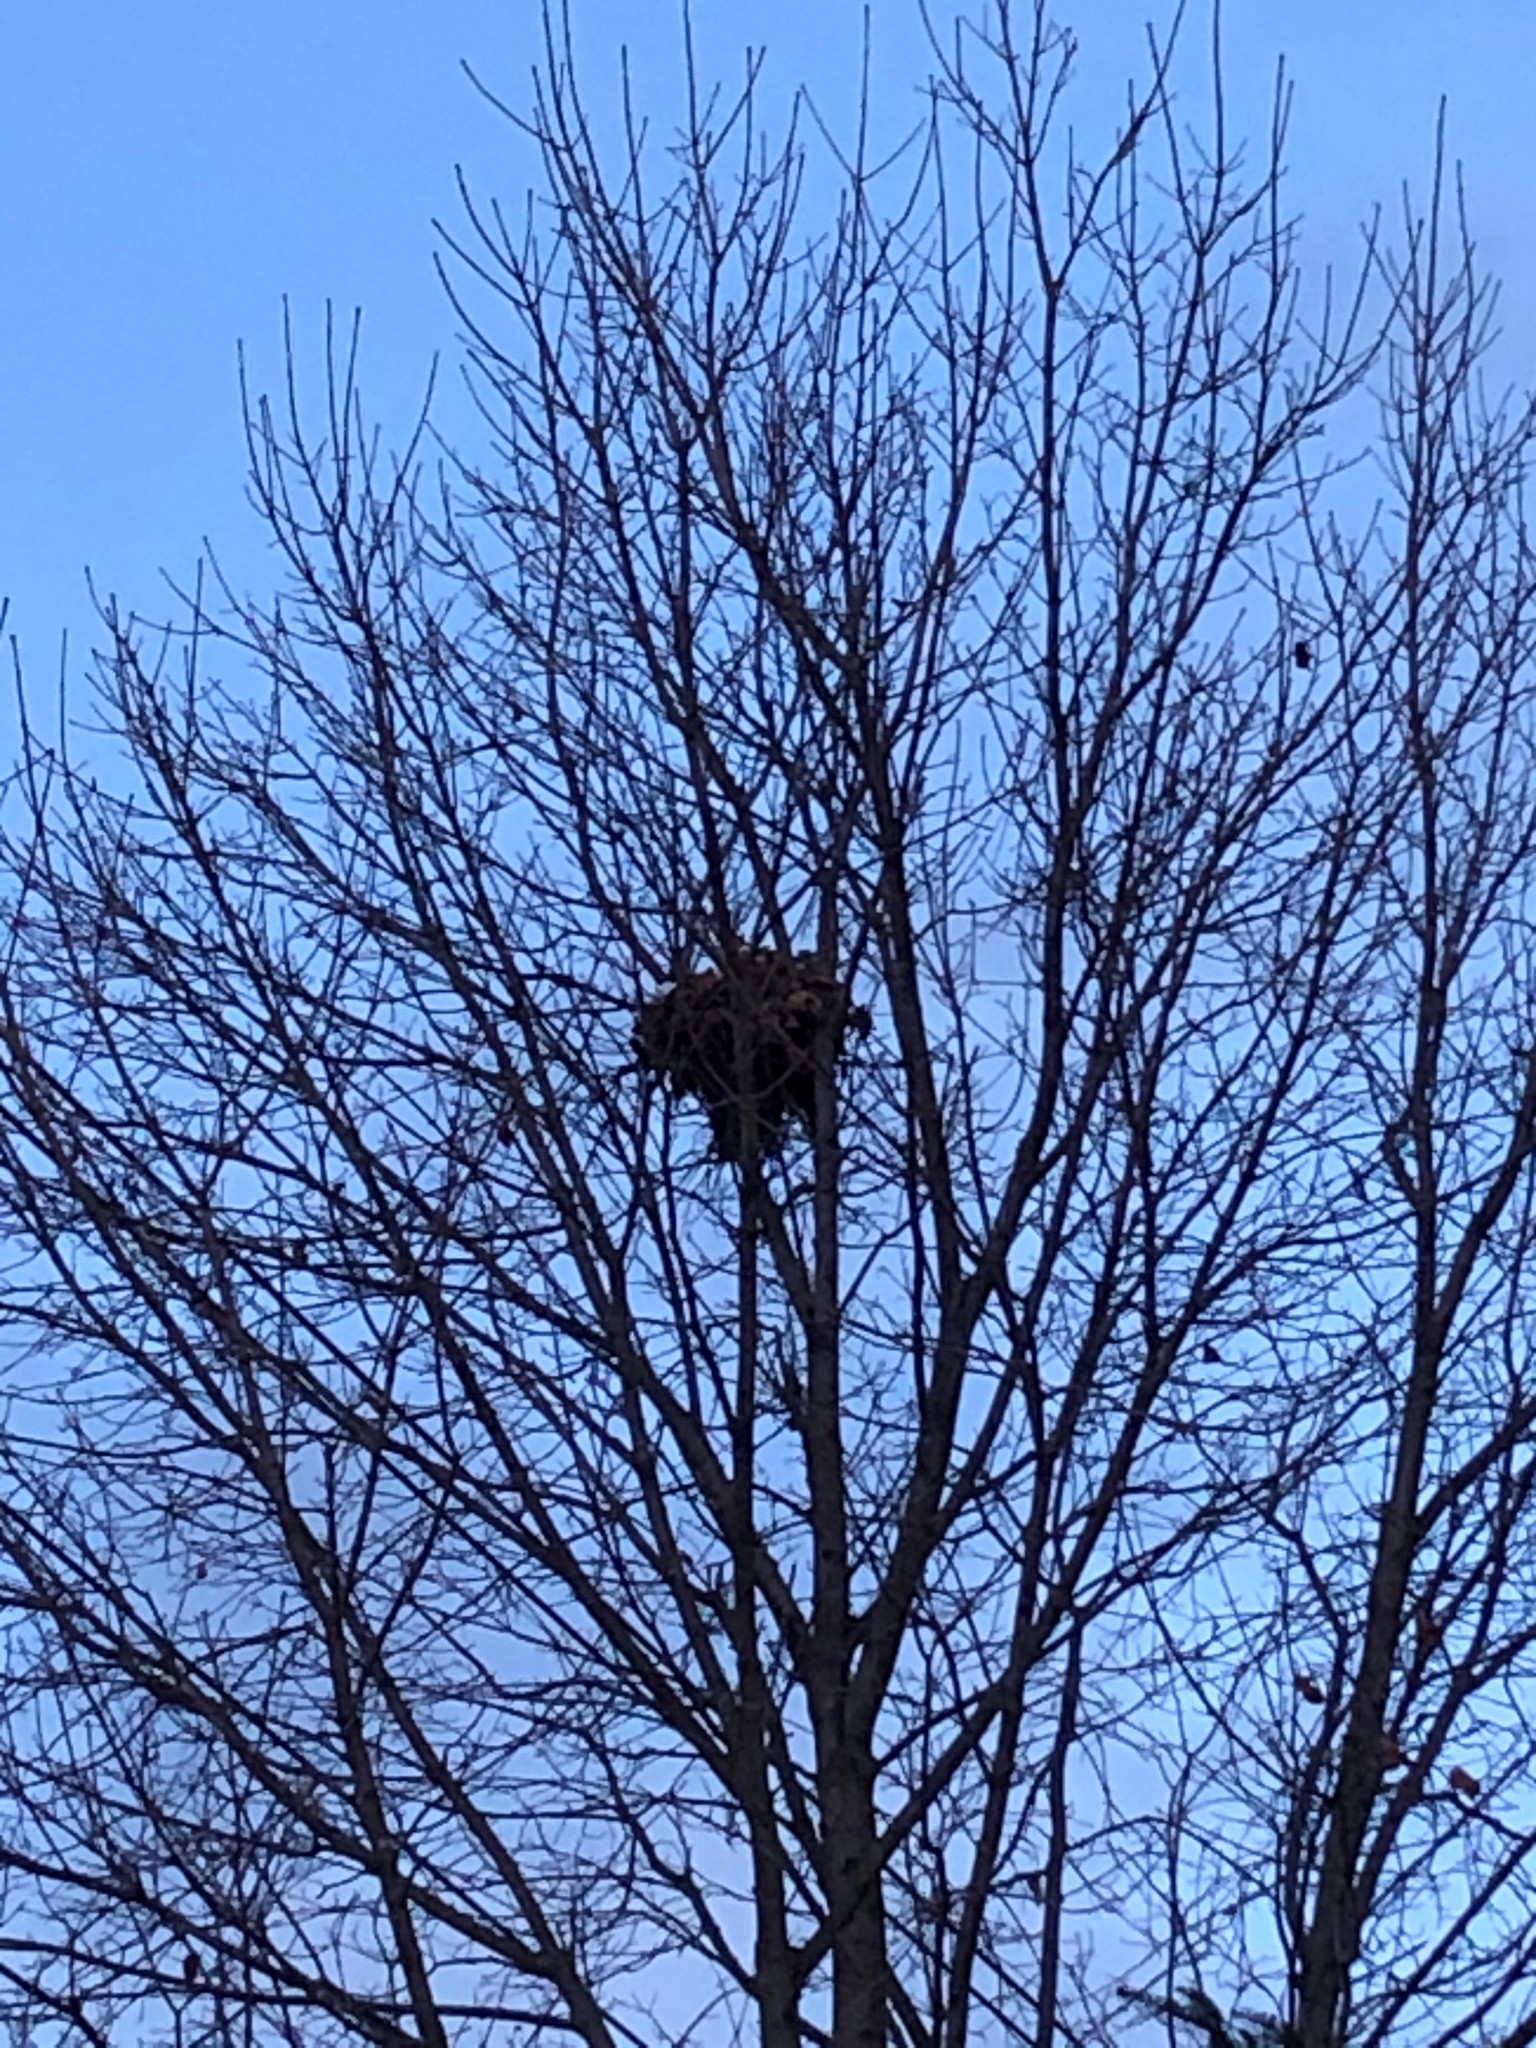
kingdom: Animalia
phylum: Chordata
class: Mammalia
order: Rodentia
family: Sciuridae
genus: Sciurus
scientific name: Sciurus carolinensis
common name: Eastern gray squirrel
